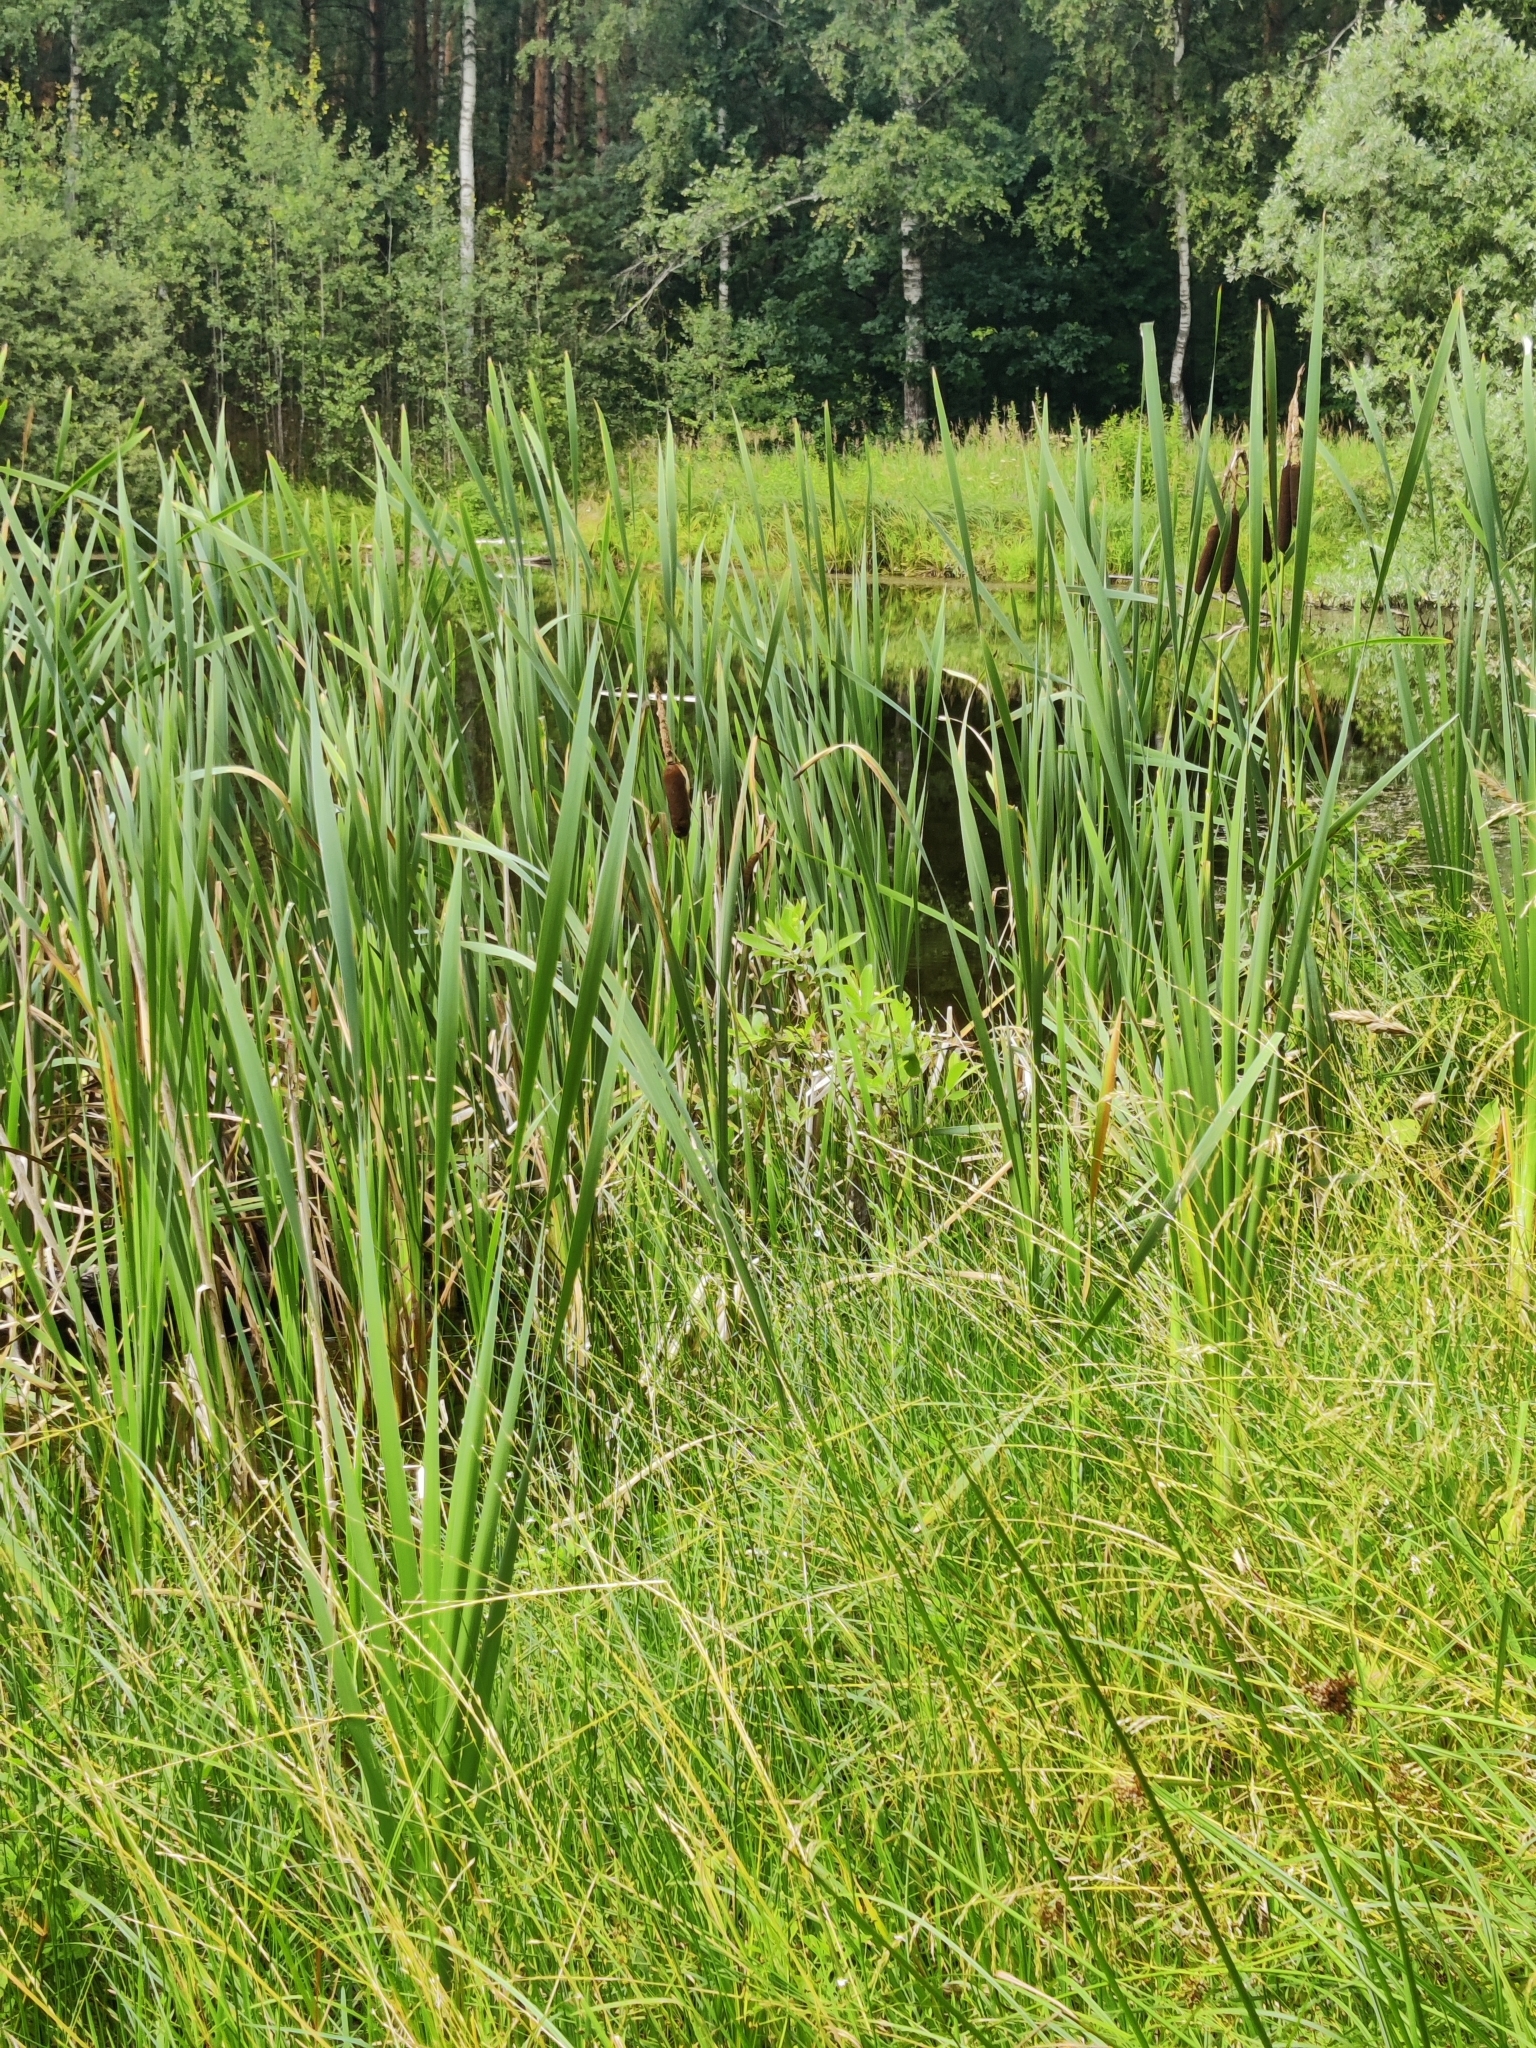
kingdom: Plantae
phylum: Tracheophyta
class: Liliopsida
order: Poales
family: Typhaceae
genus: Typha
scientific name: Typha latifolia
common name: Broadleaf cattail
